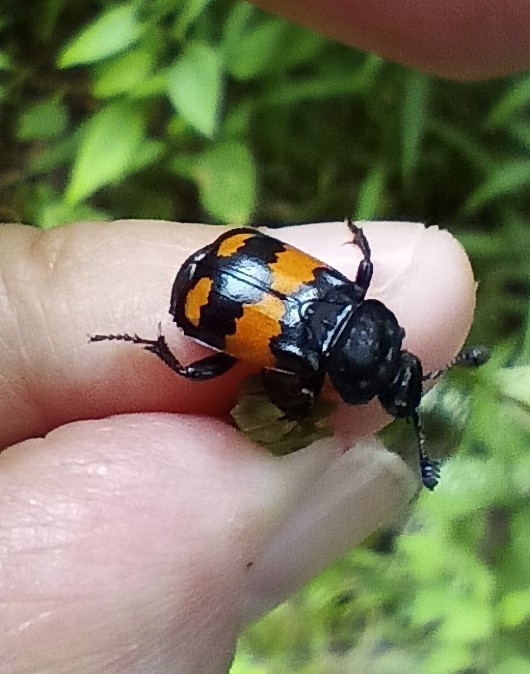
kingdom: Animalia
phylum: Arthropoda
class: Insecta
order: Coleoptera
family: Staphylinidae
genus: Nicrophorus
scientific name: Nicrophorus vespilloides
